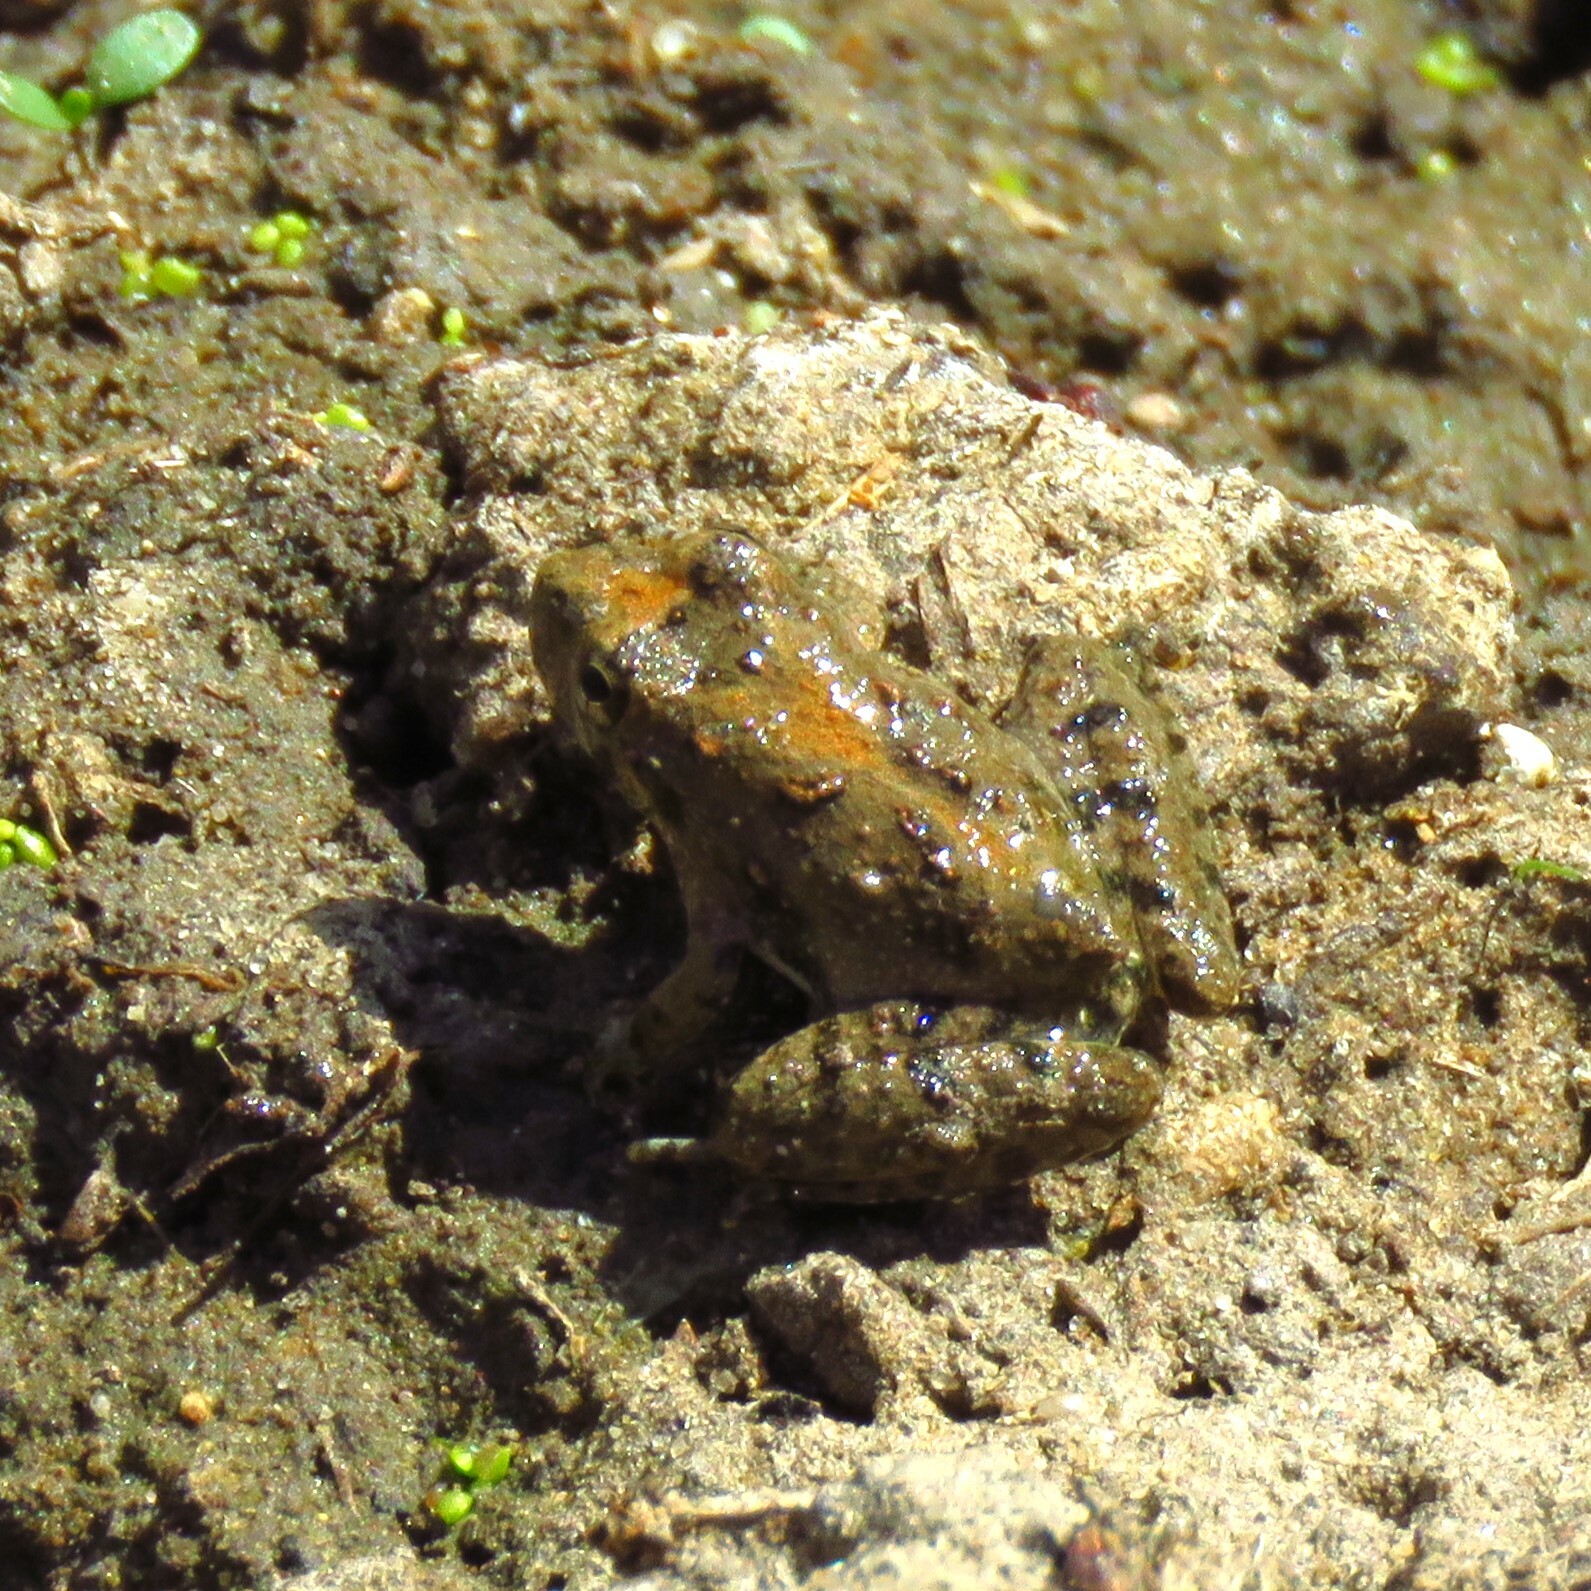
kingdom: Animalia
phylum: Chordata
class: Amphibia
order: Anura
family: Hylidae
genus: Acris
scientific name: Acris blanchardi
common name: Blanchard's cricket frog
